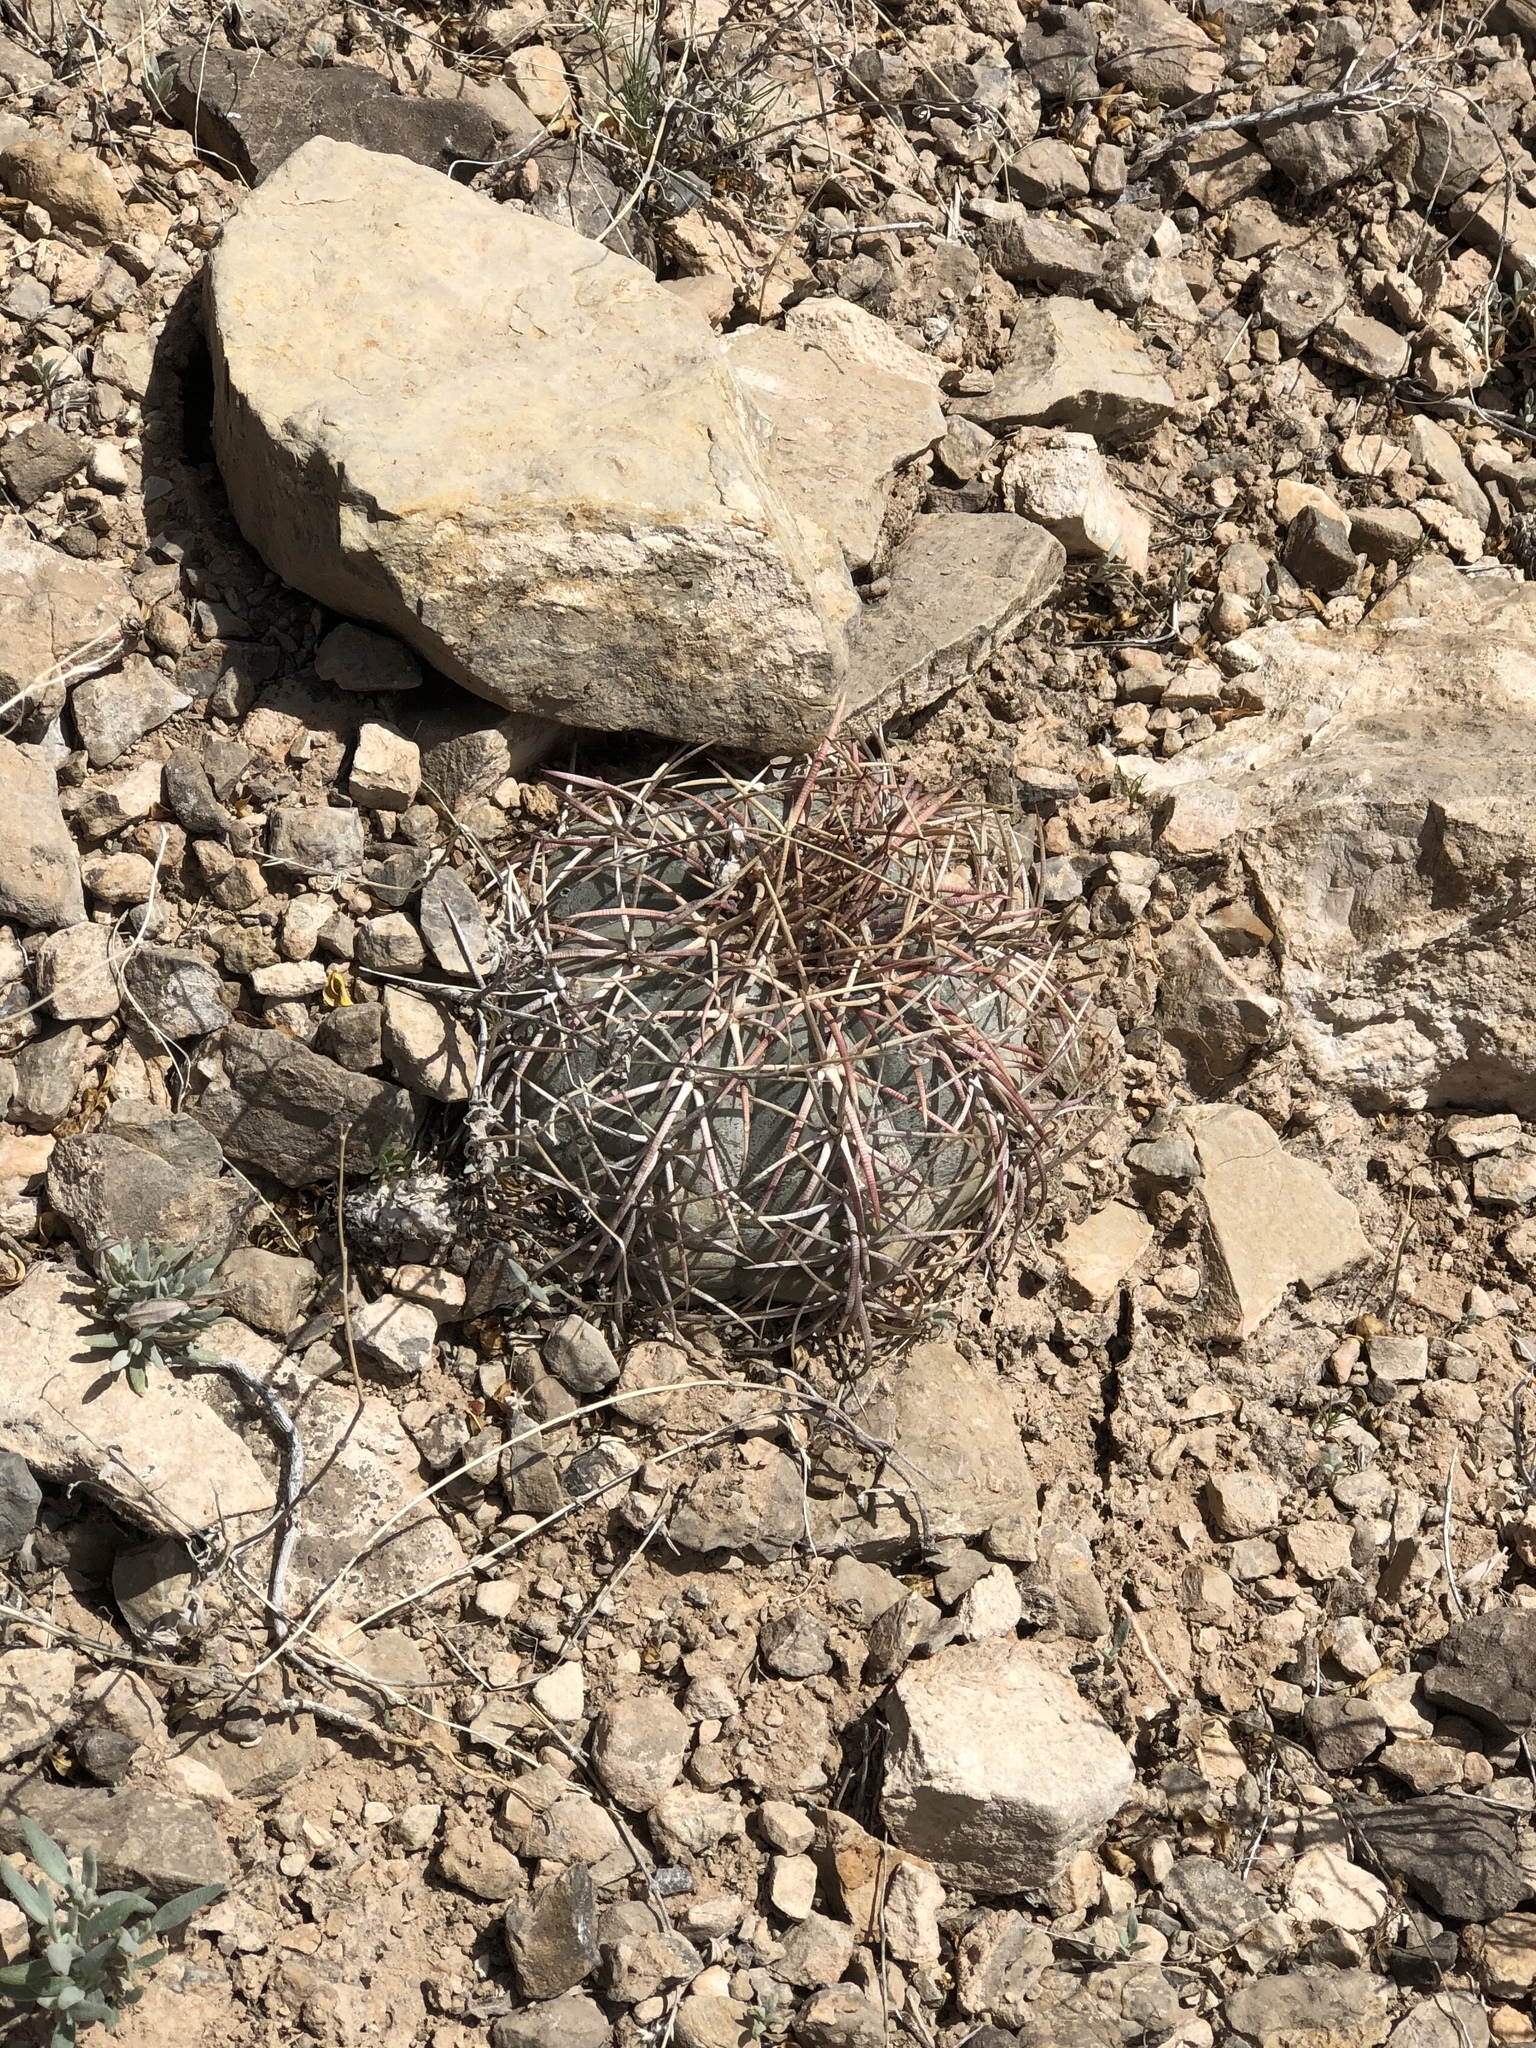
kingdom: Plantae
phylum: Tracheophyta
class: Magnoliopsida
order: Caryophyllales
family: Cactaceae
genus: Echinocactus
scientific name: Echinocactus horizonthalonius
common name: Devilshead
